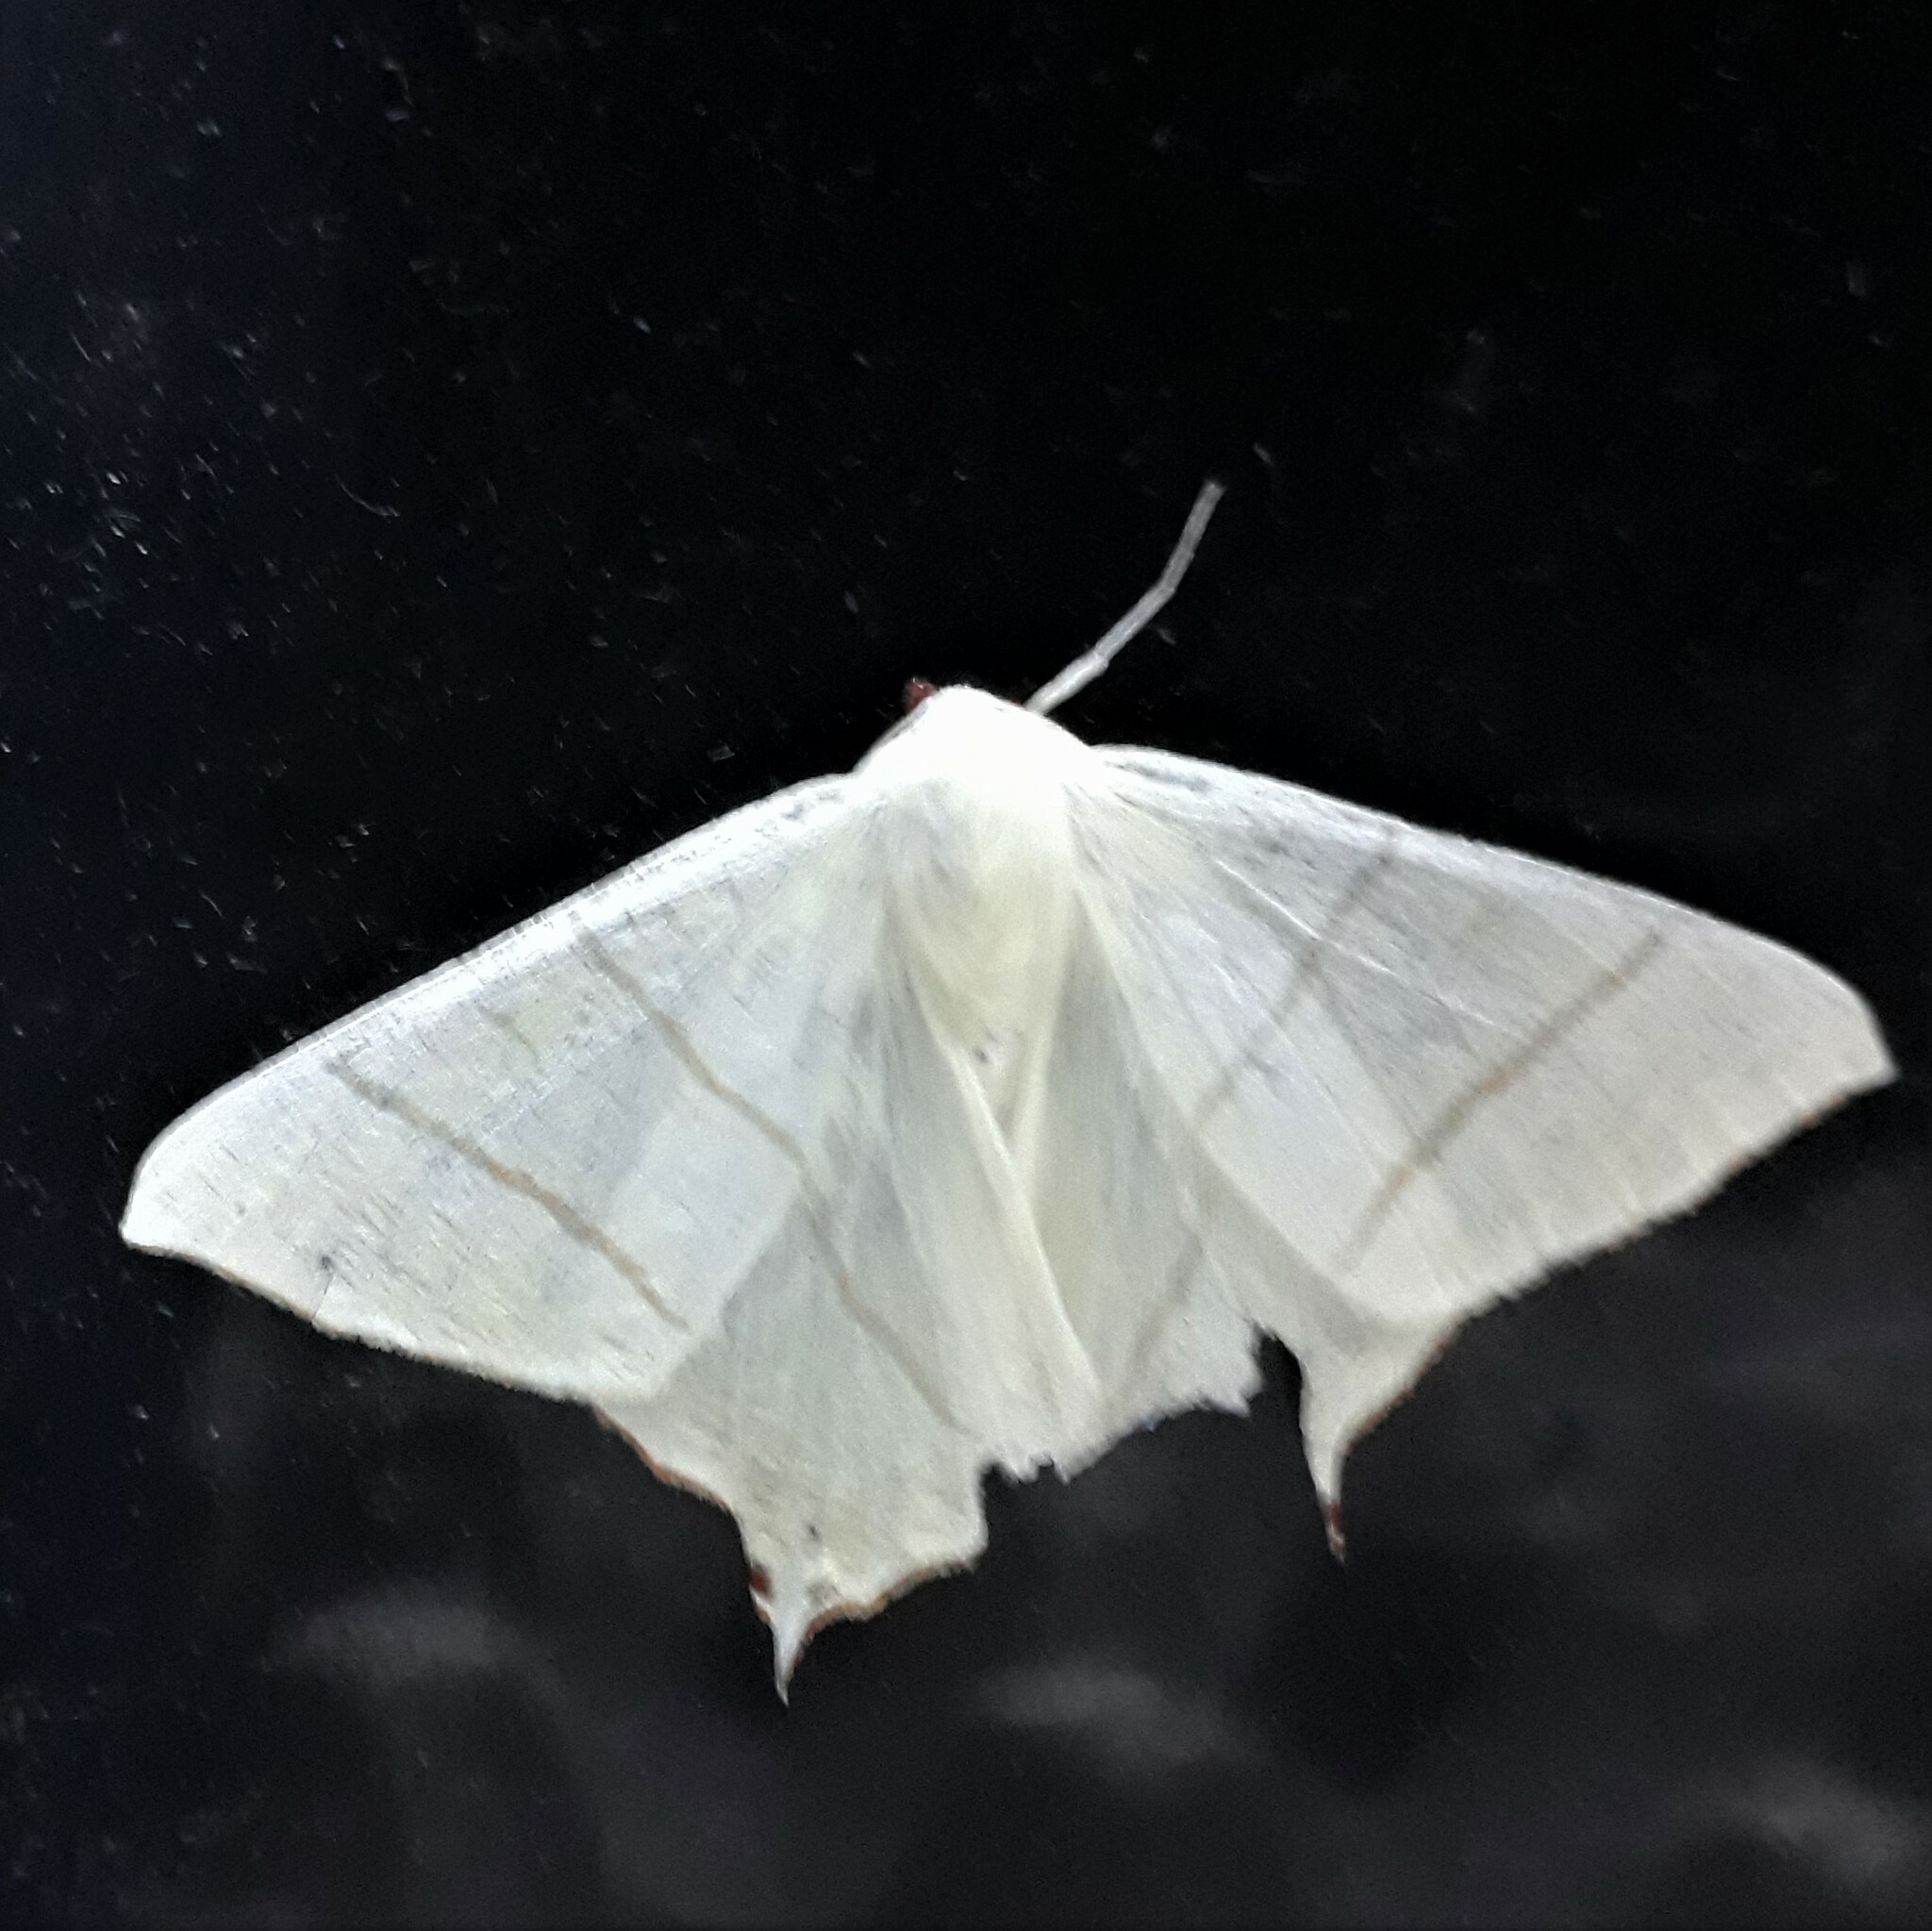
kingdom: Animalia
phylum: Arthropoda
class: Insecta
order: Lepidoptera
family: Geometridae
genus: Ourapteryx
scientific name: Ourapteryx sambucaria
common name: Swallow-tailed moth
